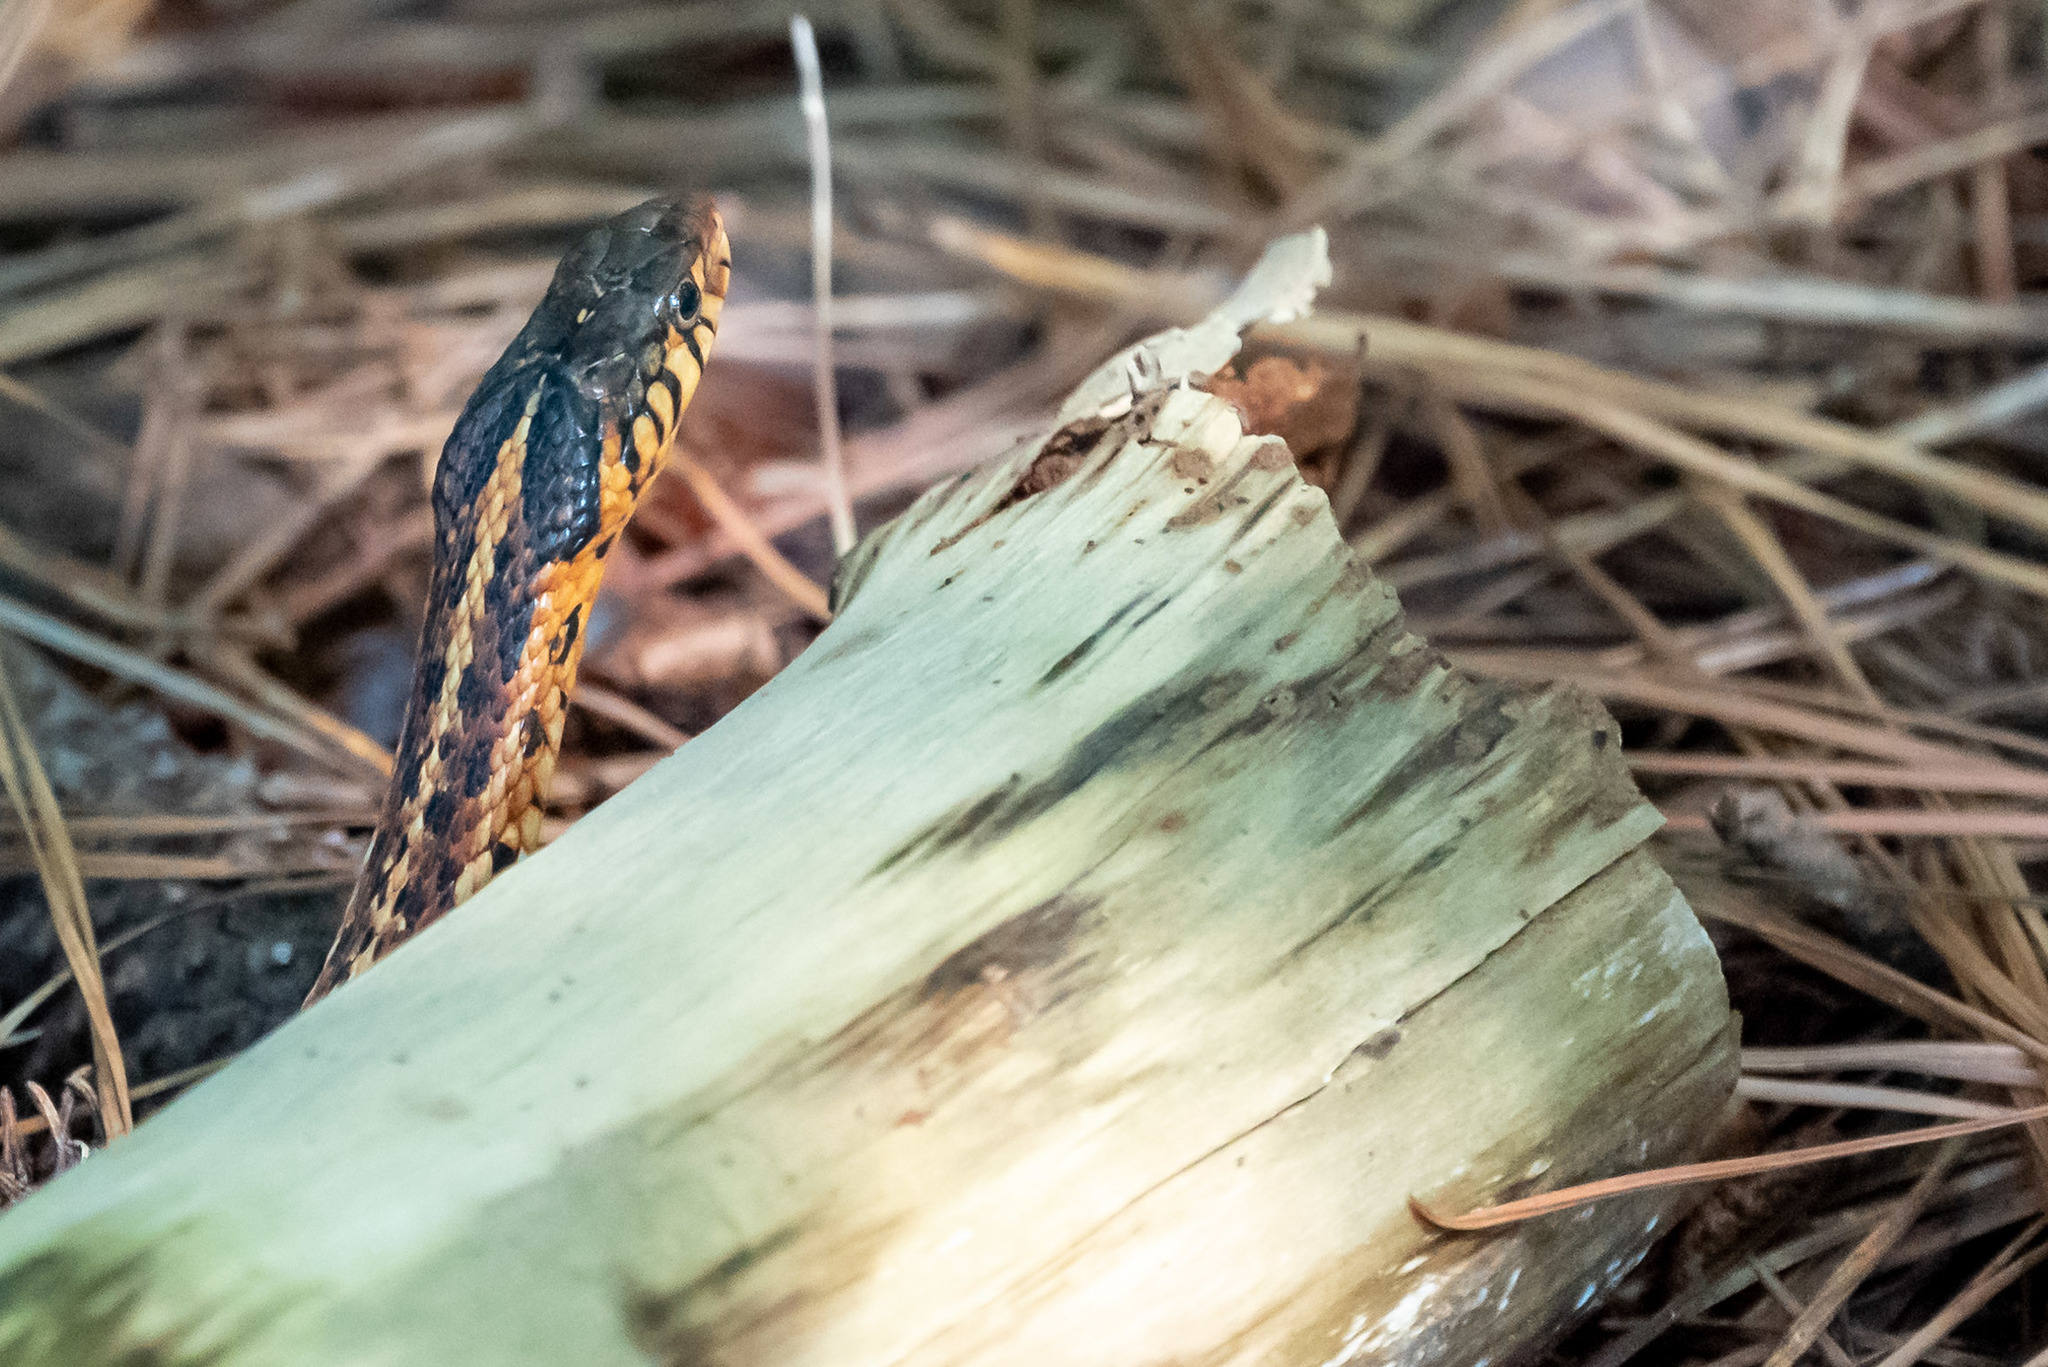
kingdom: Animalia
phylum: Chordata
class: Squamata
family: Colubridae
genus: Thamnophis
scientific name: Thamnophis sirtalis
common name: Common garter snake
